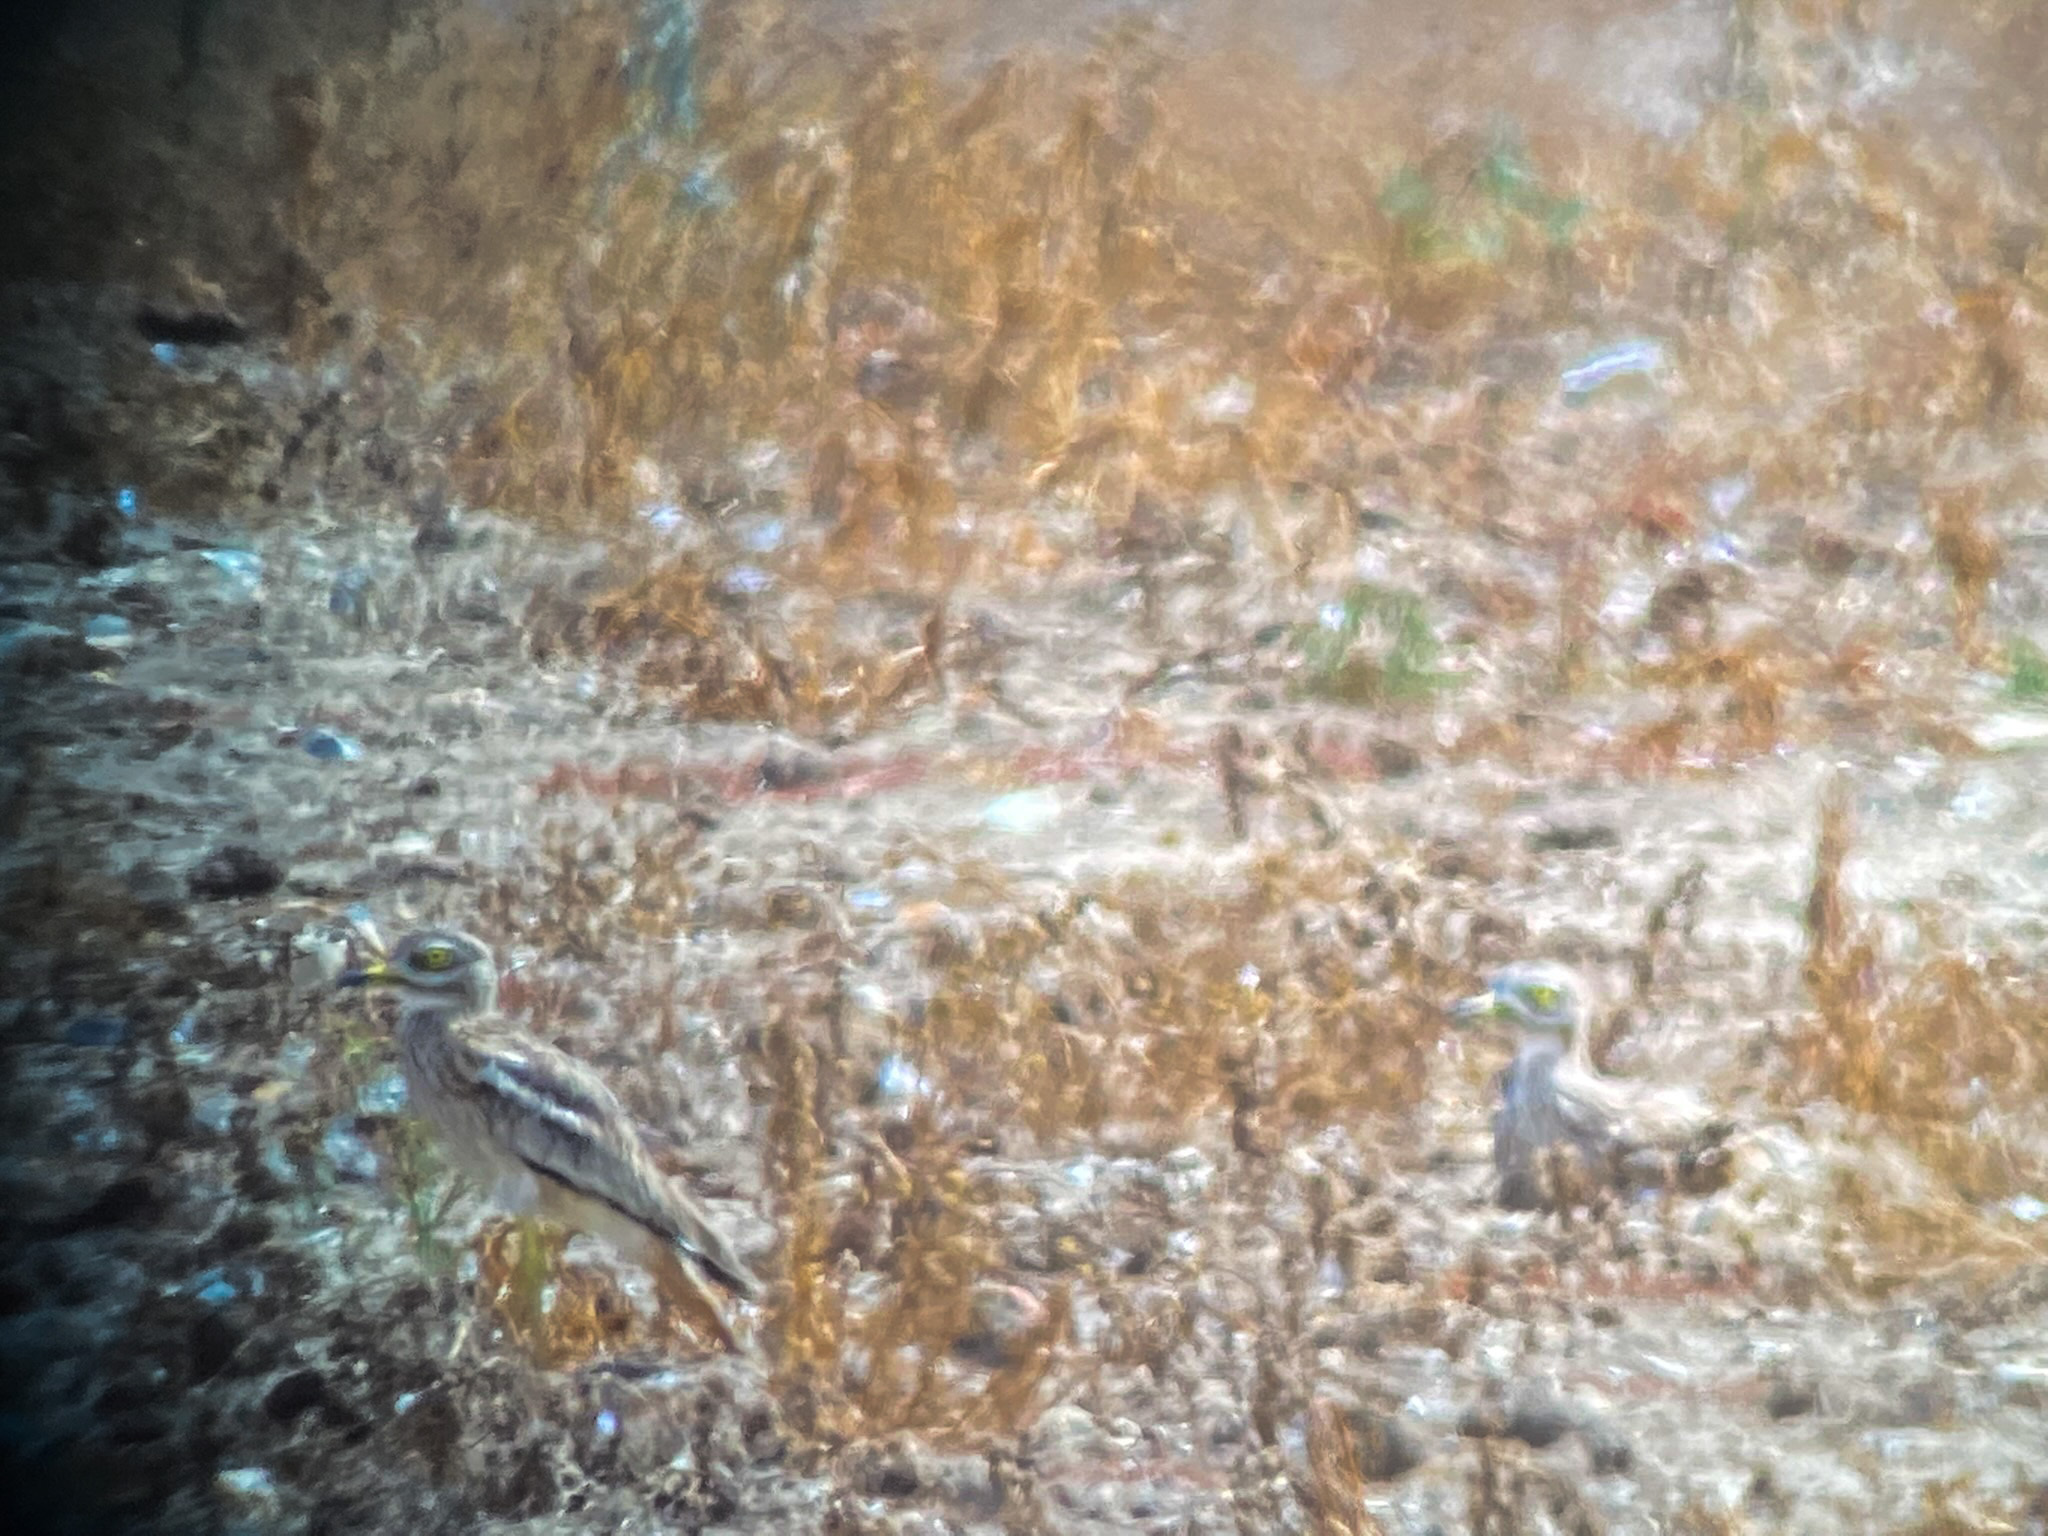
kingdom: Animalia
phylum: Chordata
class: Aves
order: Charadriiformes
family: Burhinidae
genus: Burhinus
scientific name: Burhinus oedicnemus
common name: Eurasian stone-curlew
